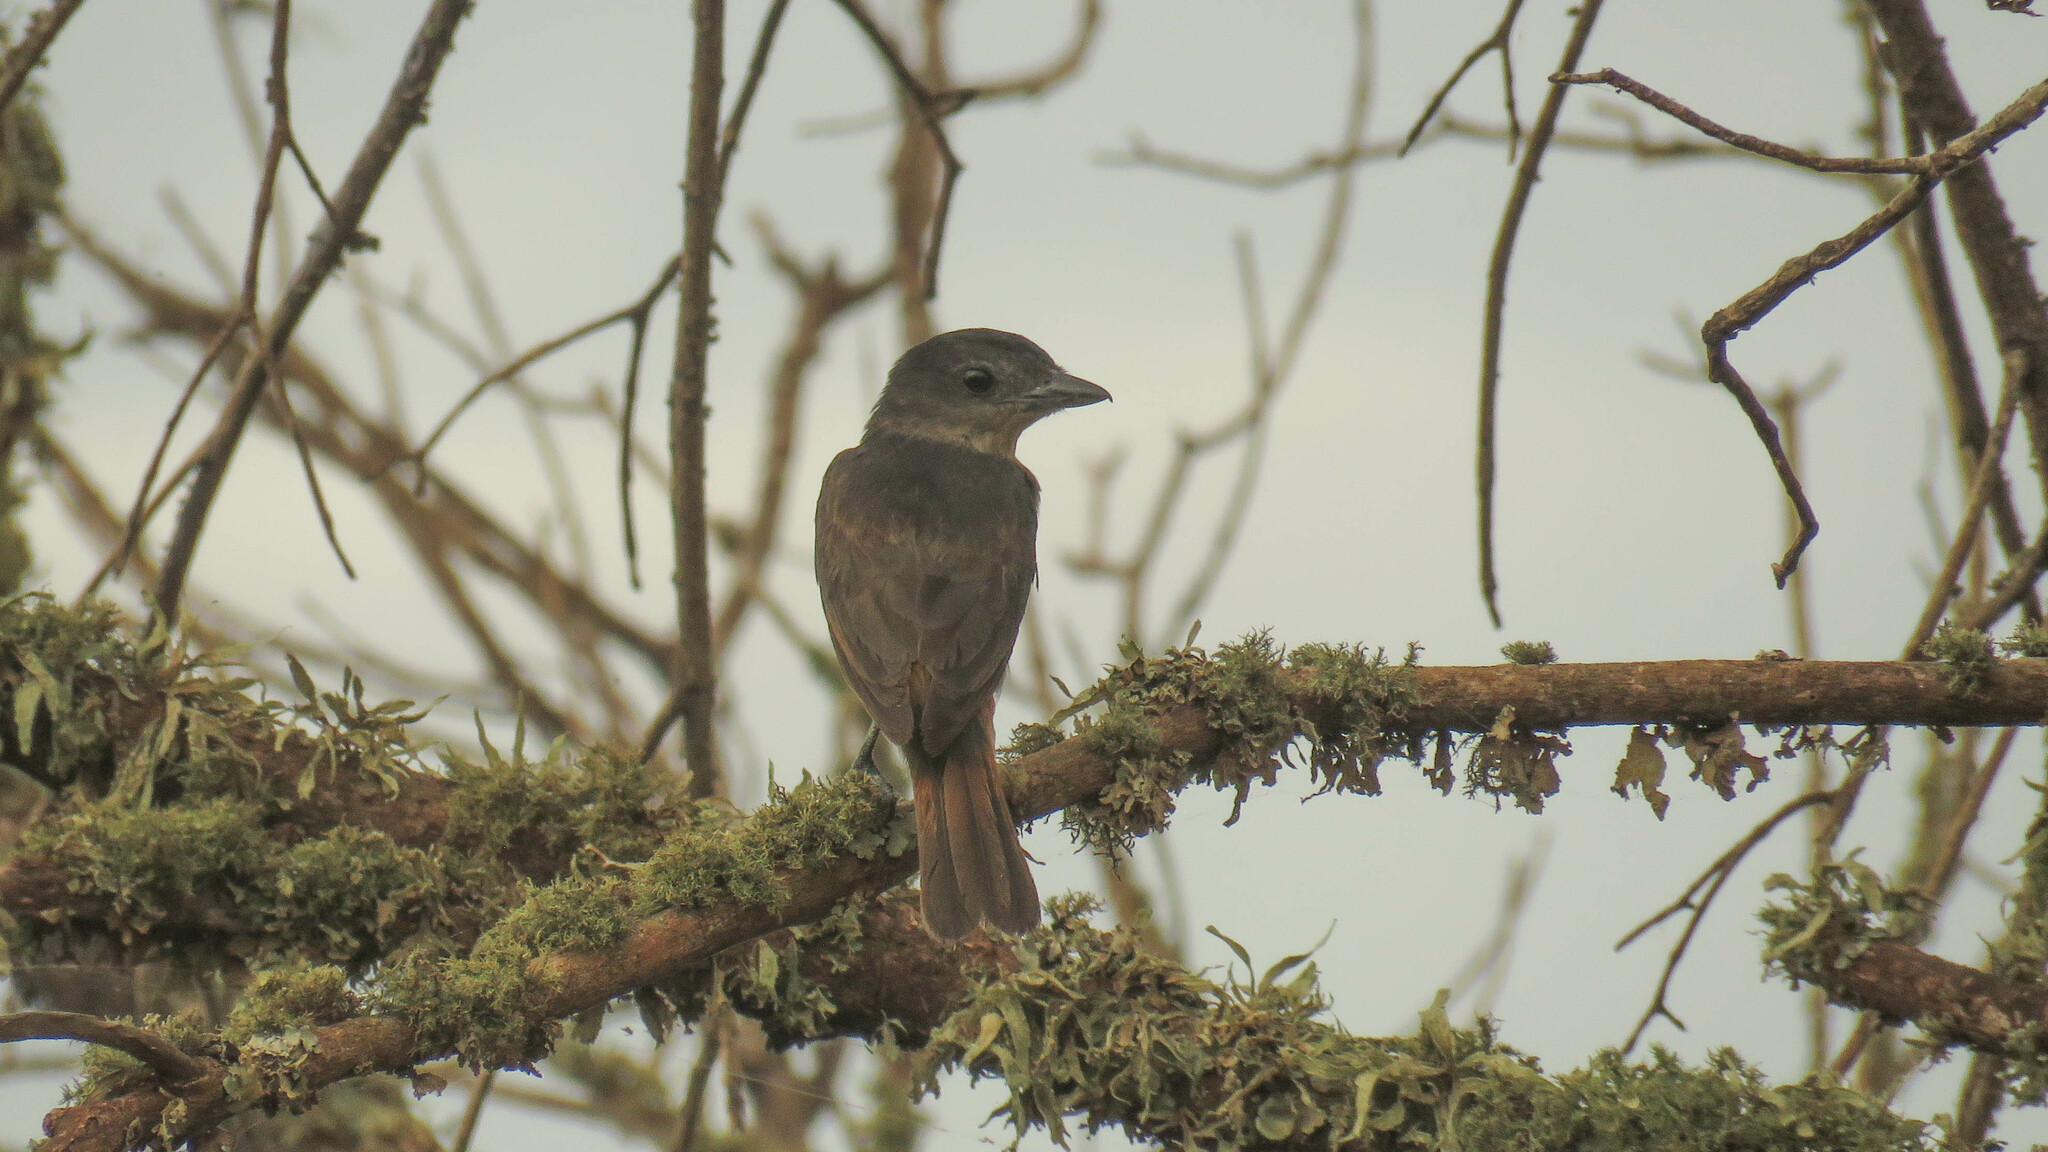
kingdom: Animalia
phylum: Chordata
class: Aves
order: Passeriformes
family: Cotingidae
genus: Pachyramphus
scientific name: Pachyramphus validus
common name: Crested becard
